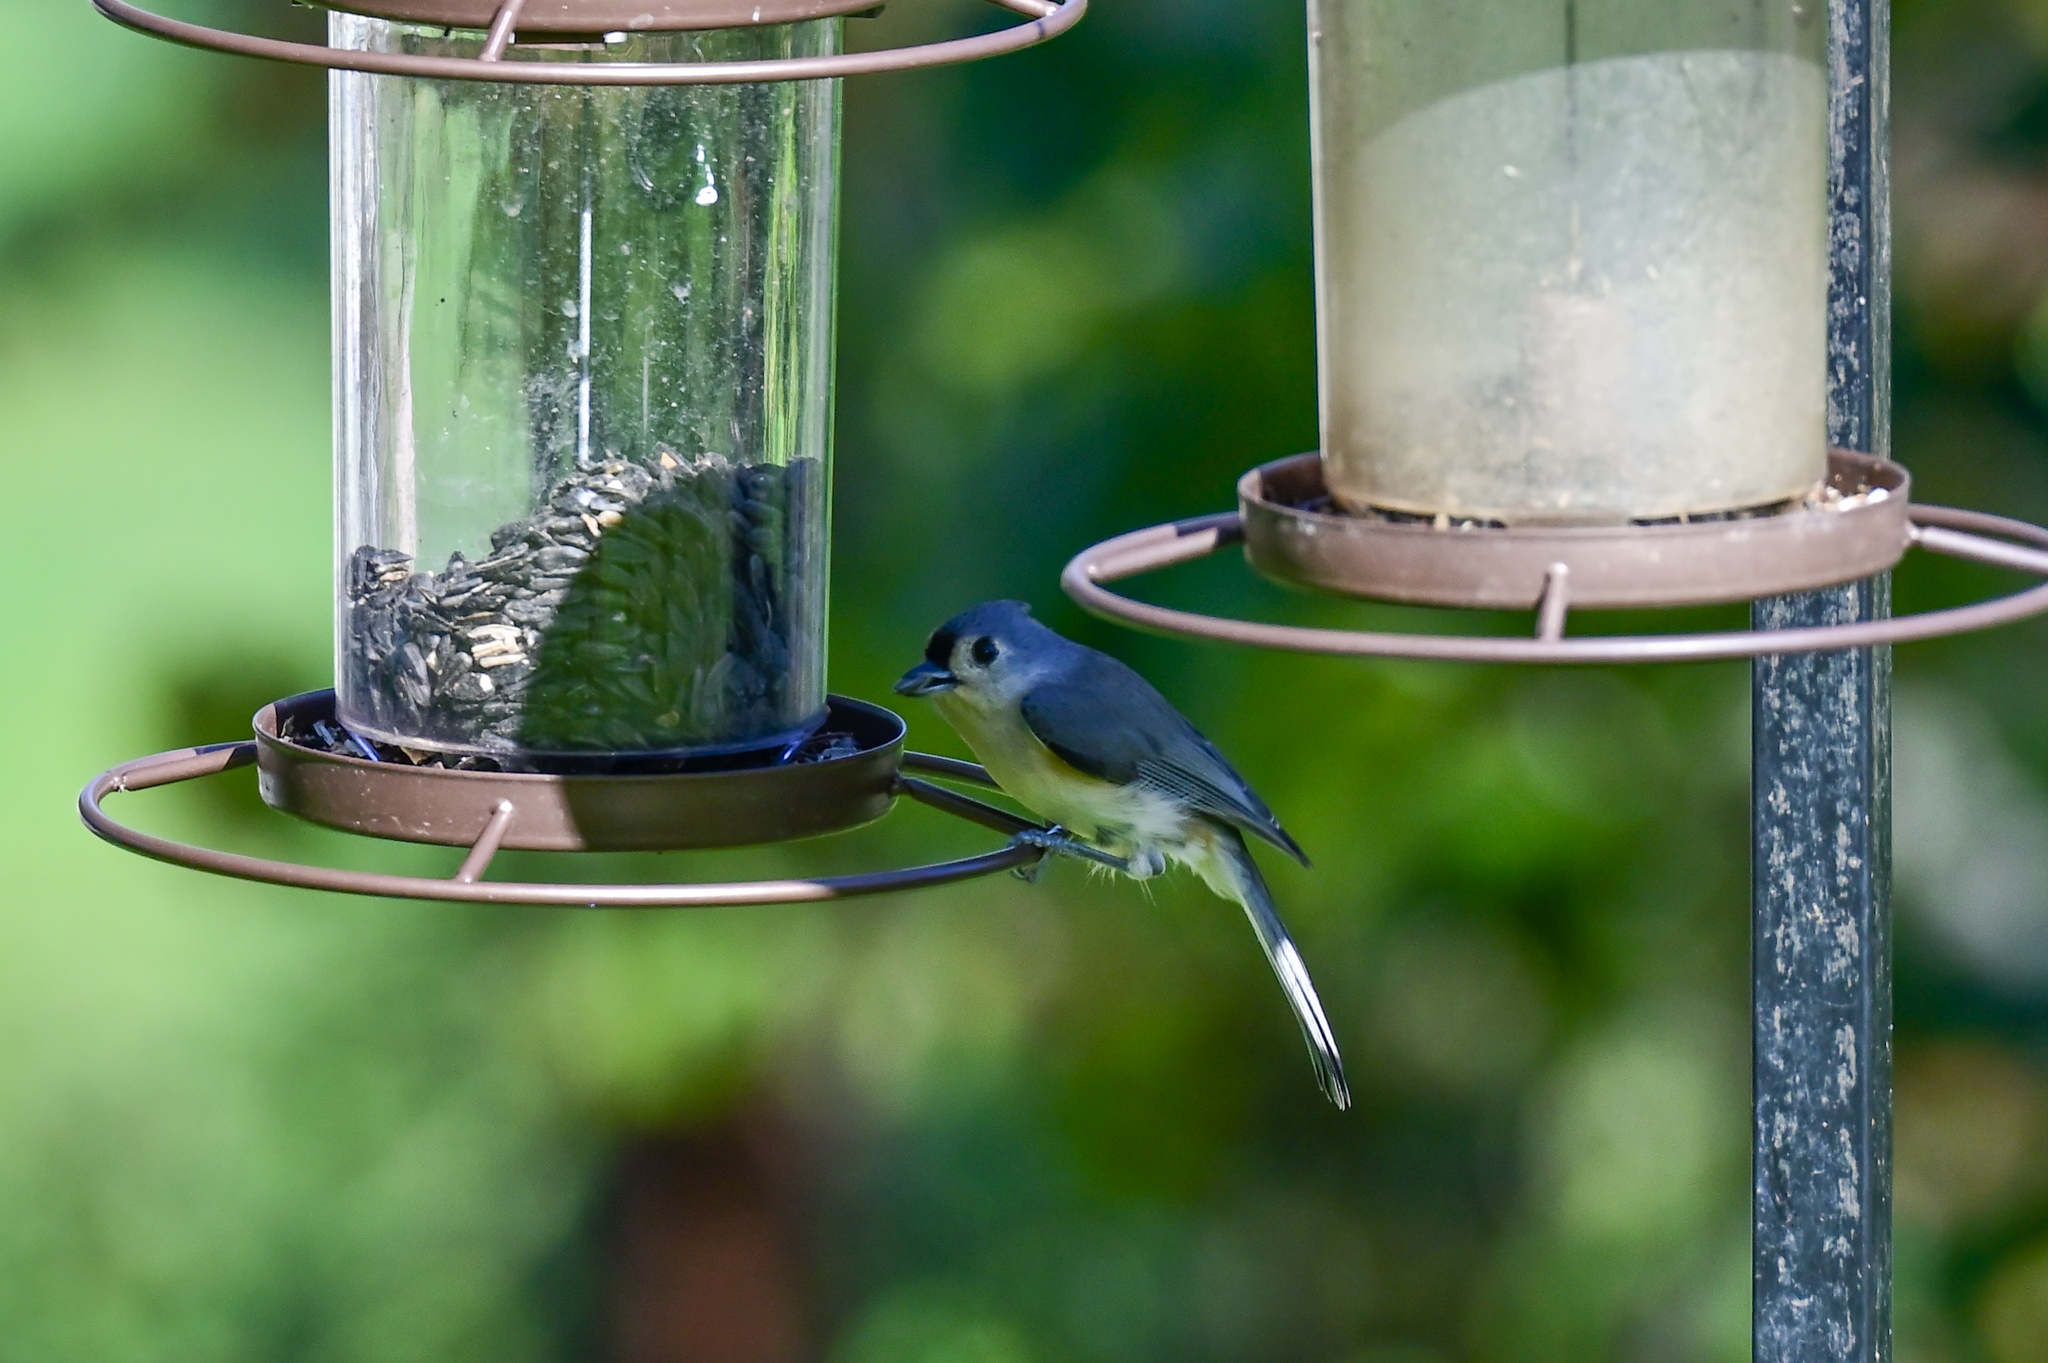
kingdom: Animalia
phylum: Chordata
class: Aves
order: Passeriformes
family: Paridae
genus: Baeolophus
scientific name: Baeolophus bicolor
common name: Tufted titmouse
